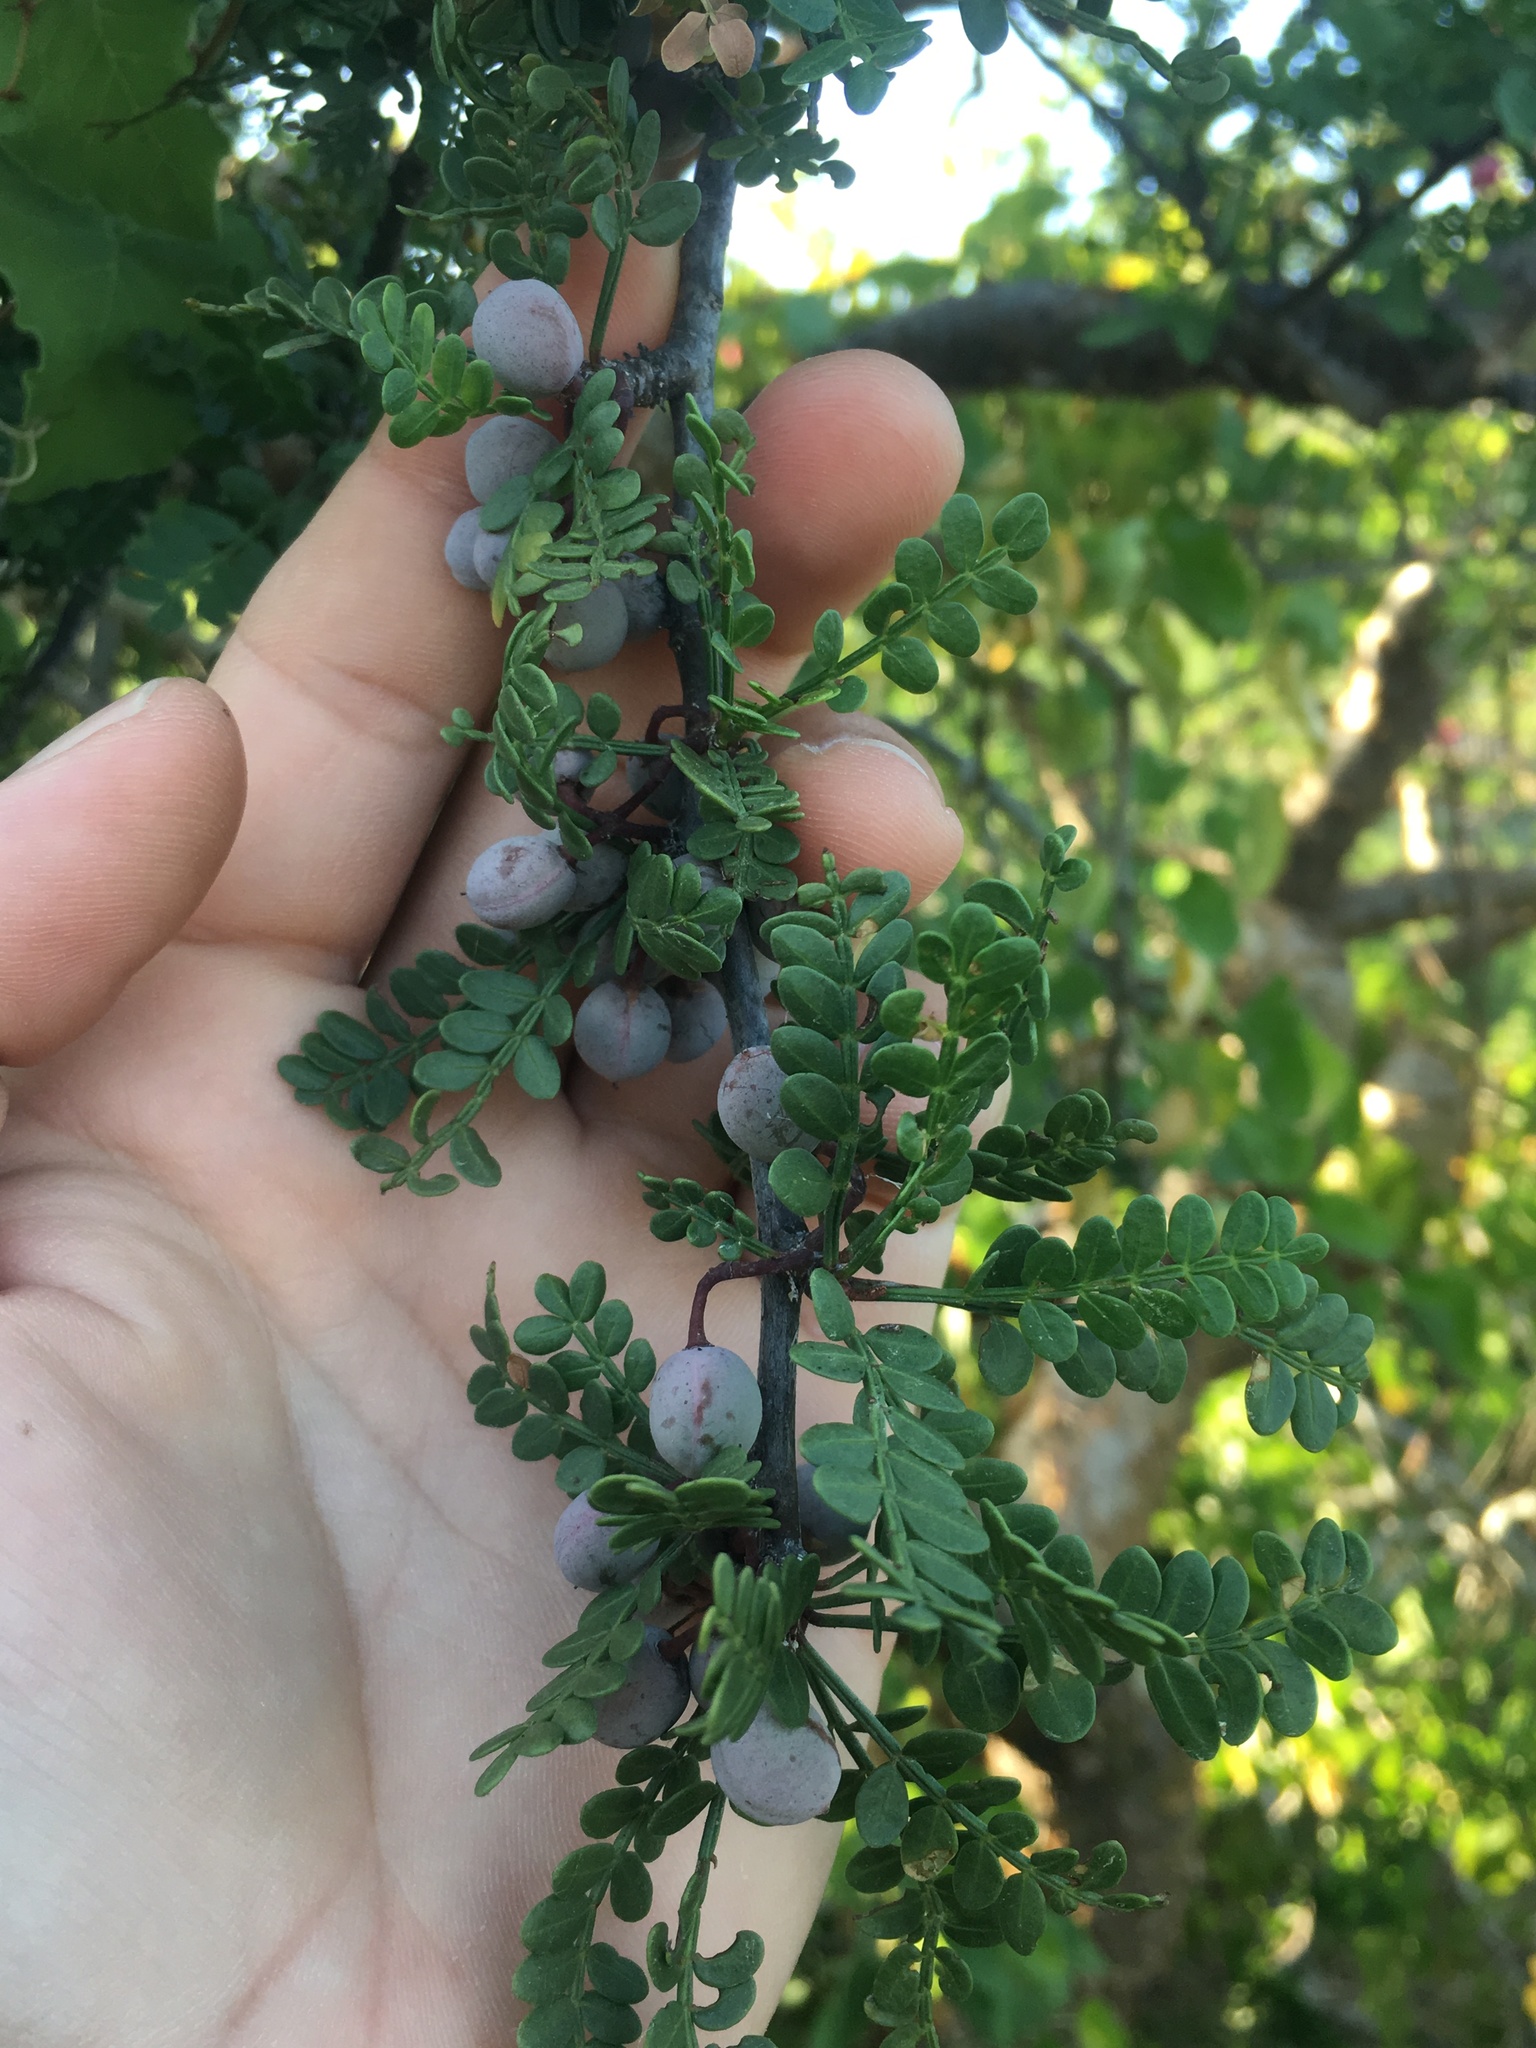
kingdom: Plantae
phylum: Tracheophyta
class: Magnoliopsida
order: Sapindales
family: Burseraceae
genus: Bursera
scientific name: Bursera exequielii
